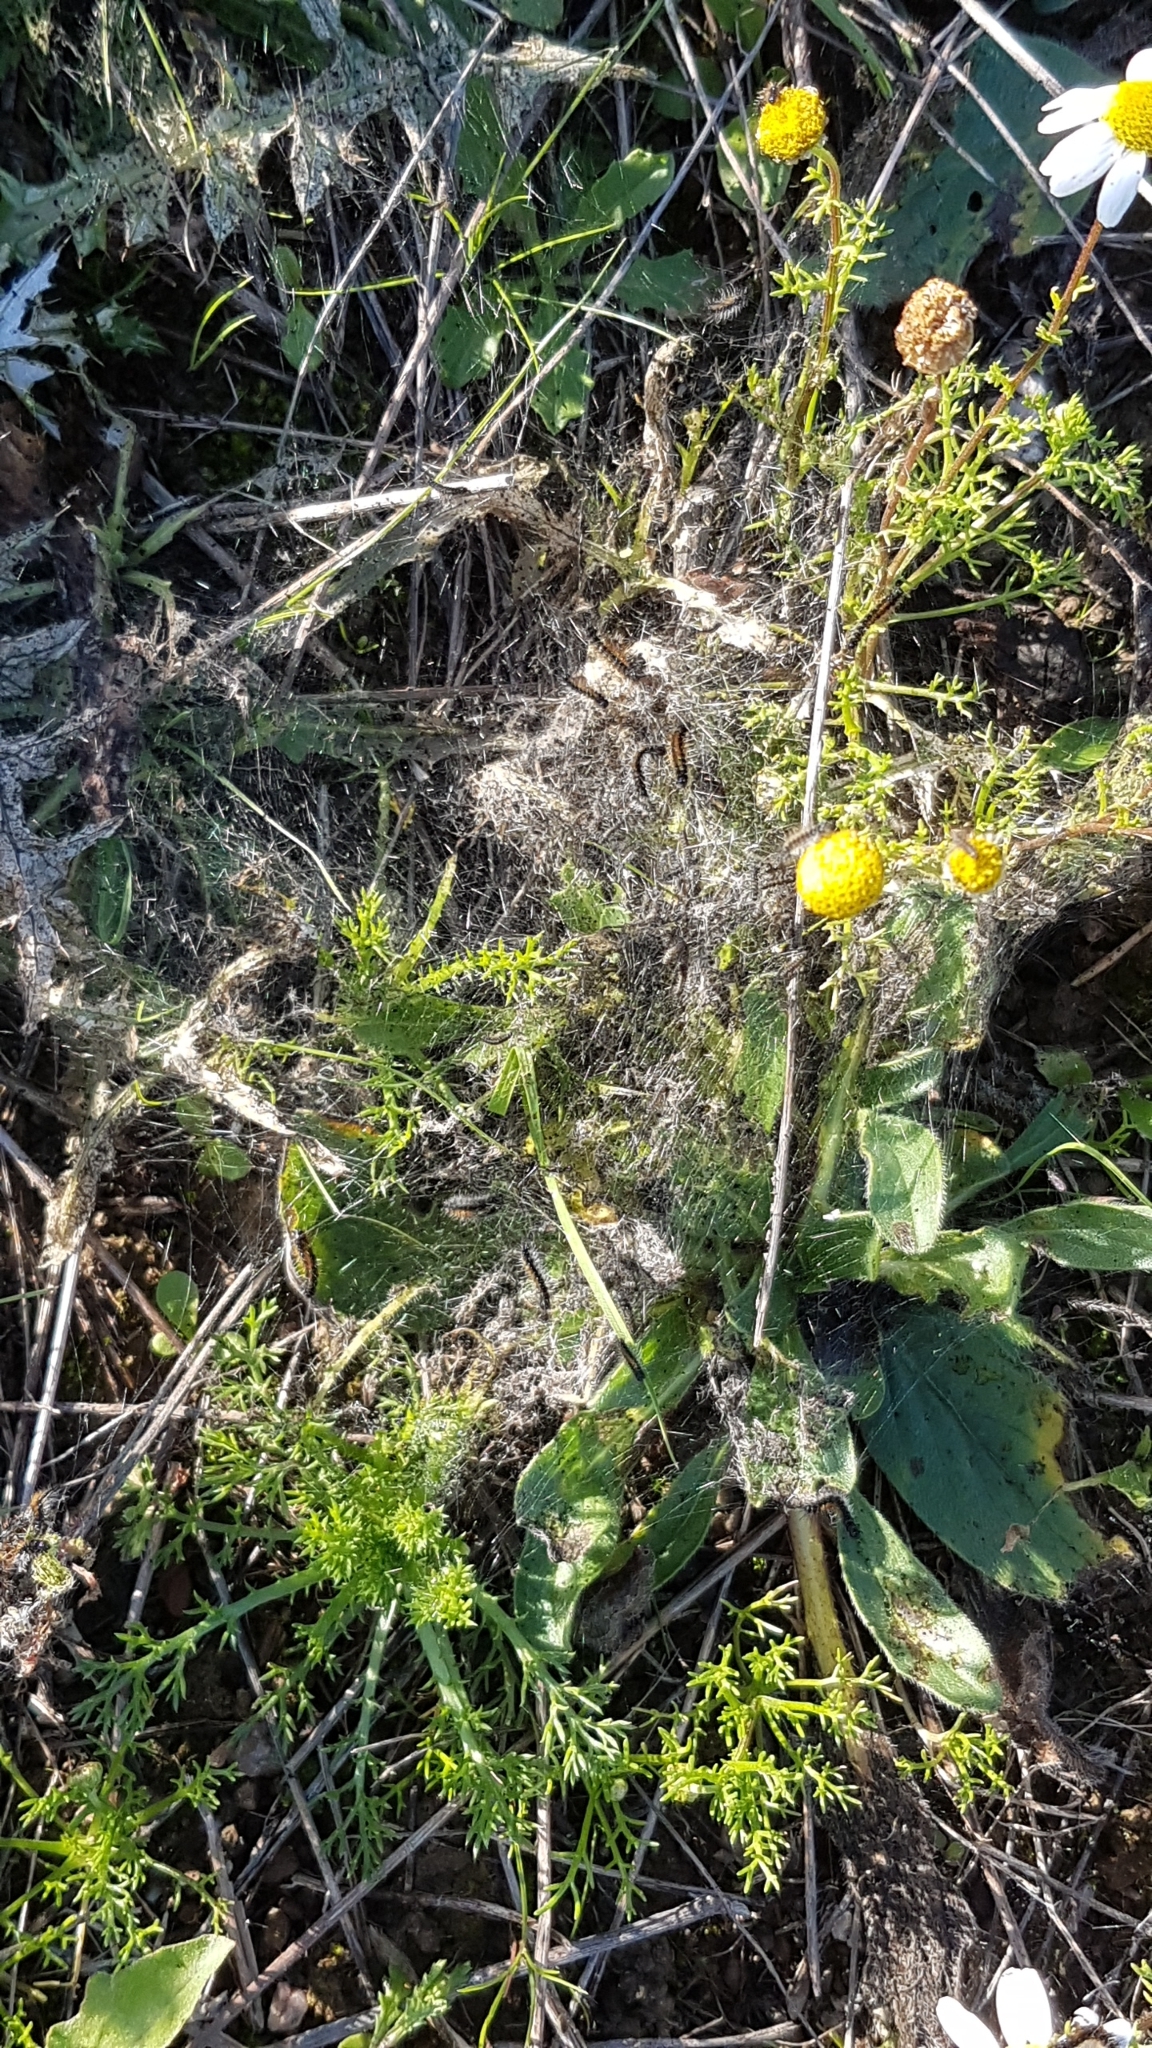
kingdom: Animalia
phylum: Arthropoda
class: Insecta
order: Lepidoptera
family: Erebidae
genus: Ocnogyna
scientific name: Ocnogyna boeticum
